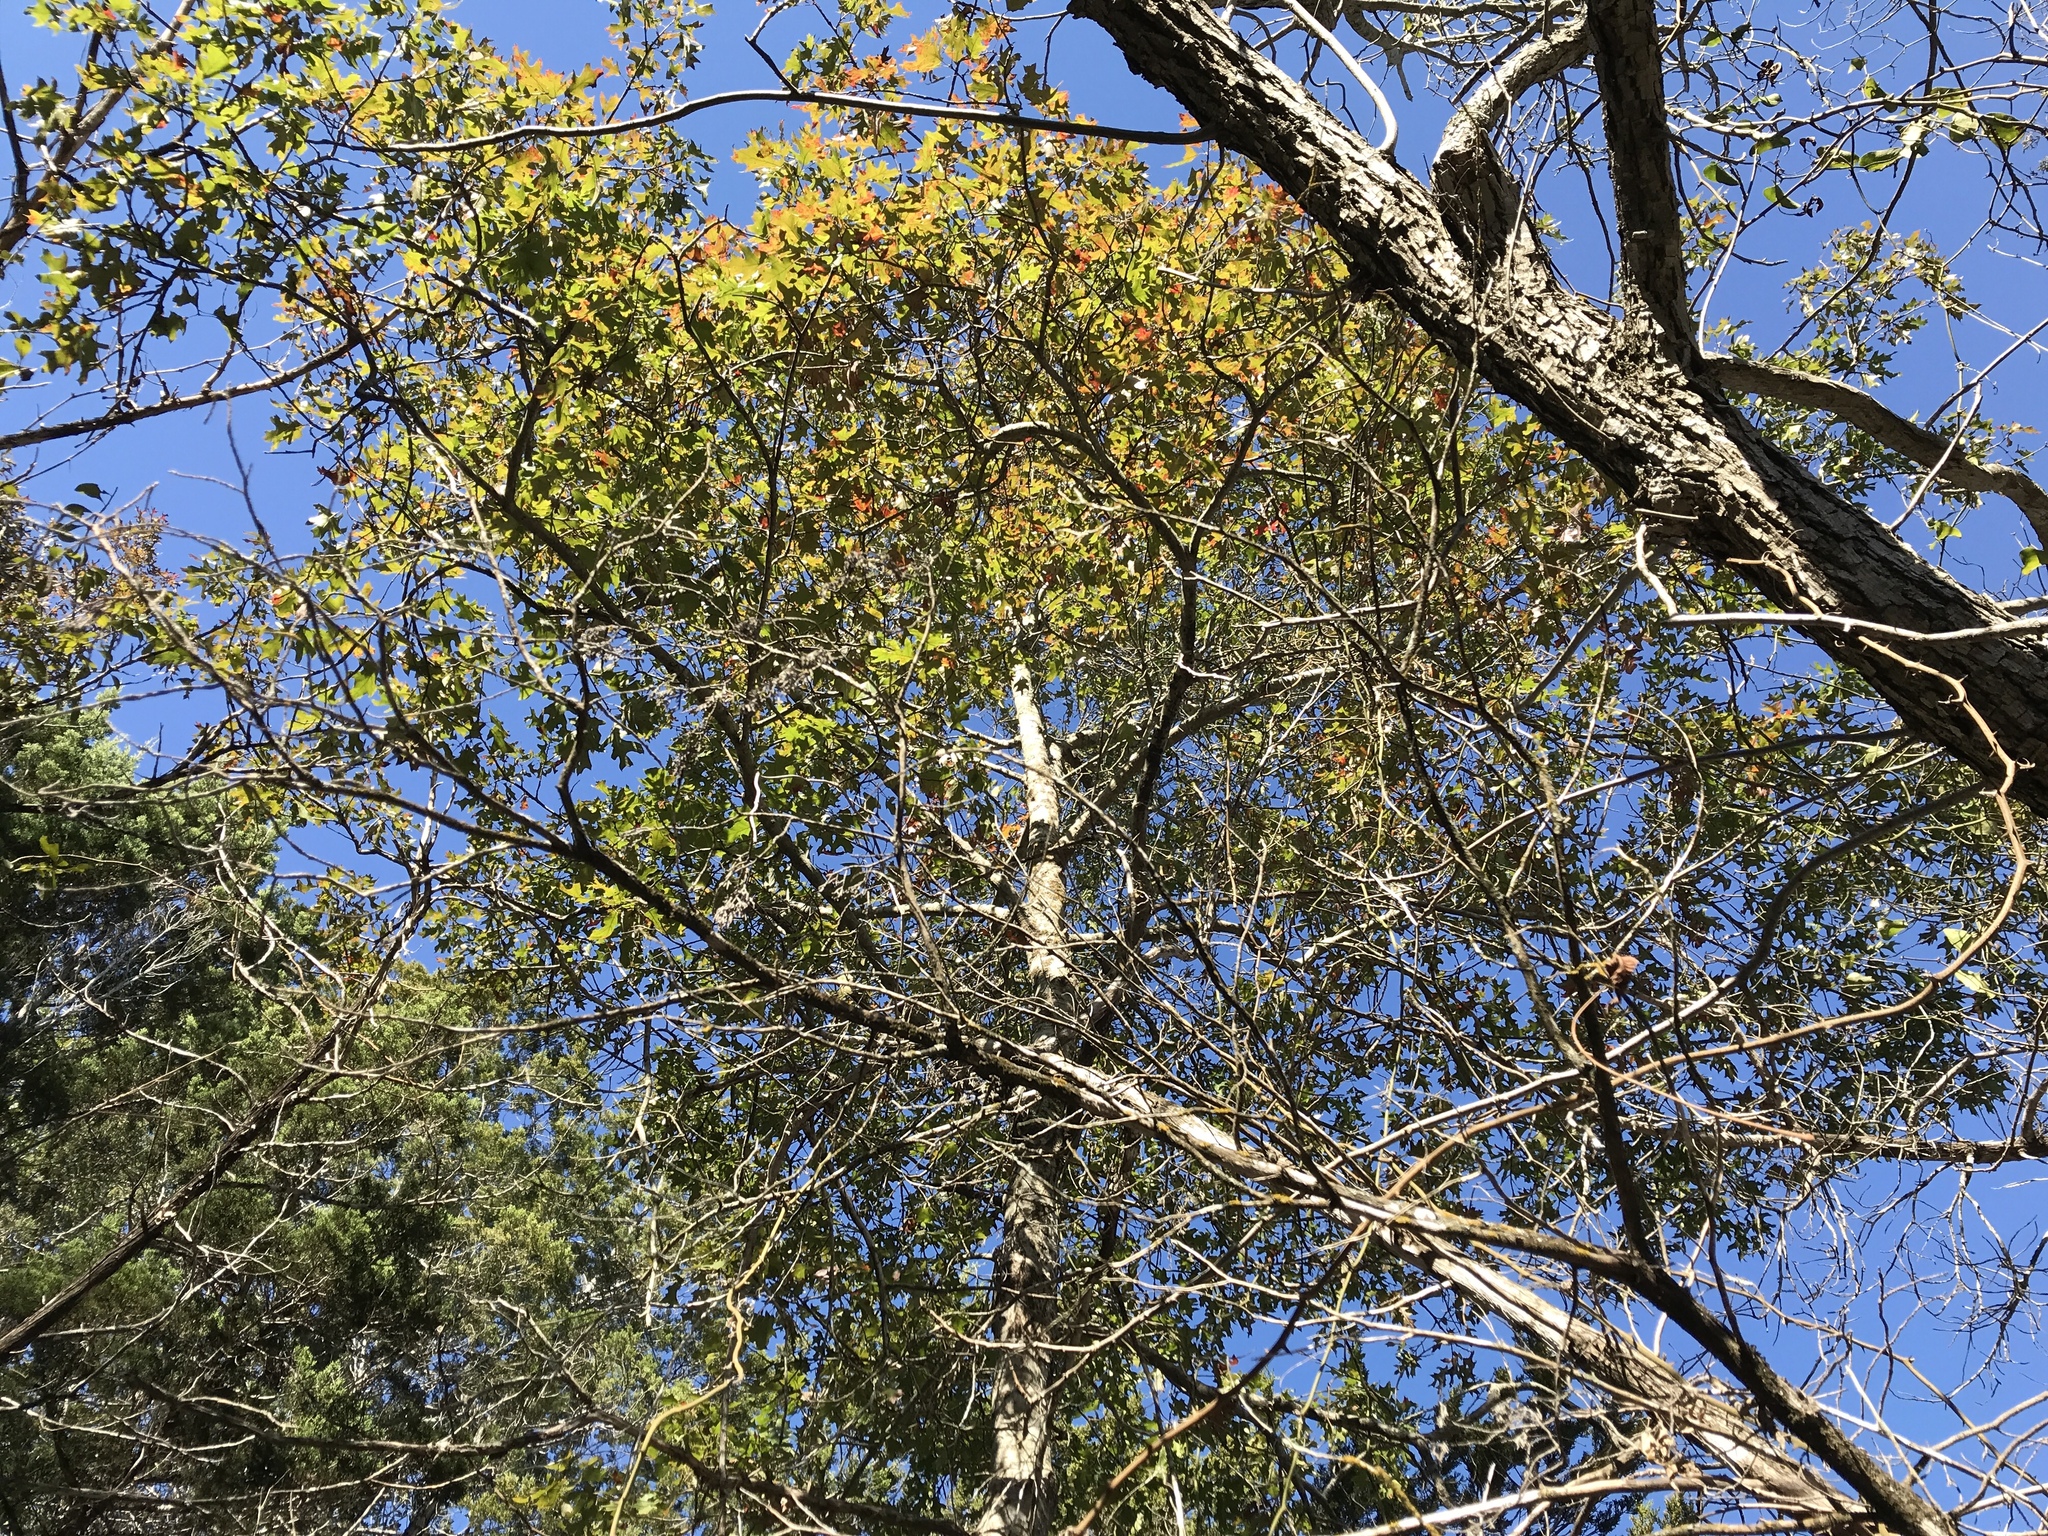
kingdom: Plantae
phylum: Tracheophyta
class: Magnoliopsida
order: Fagales
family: Fagaceae
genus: Quercus
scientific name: Quercus buckleyi
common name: Buckley oak
